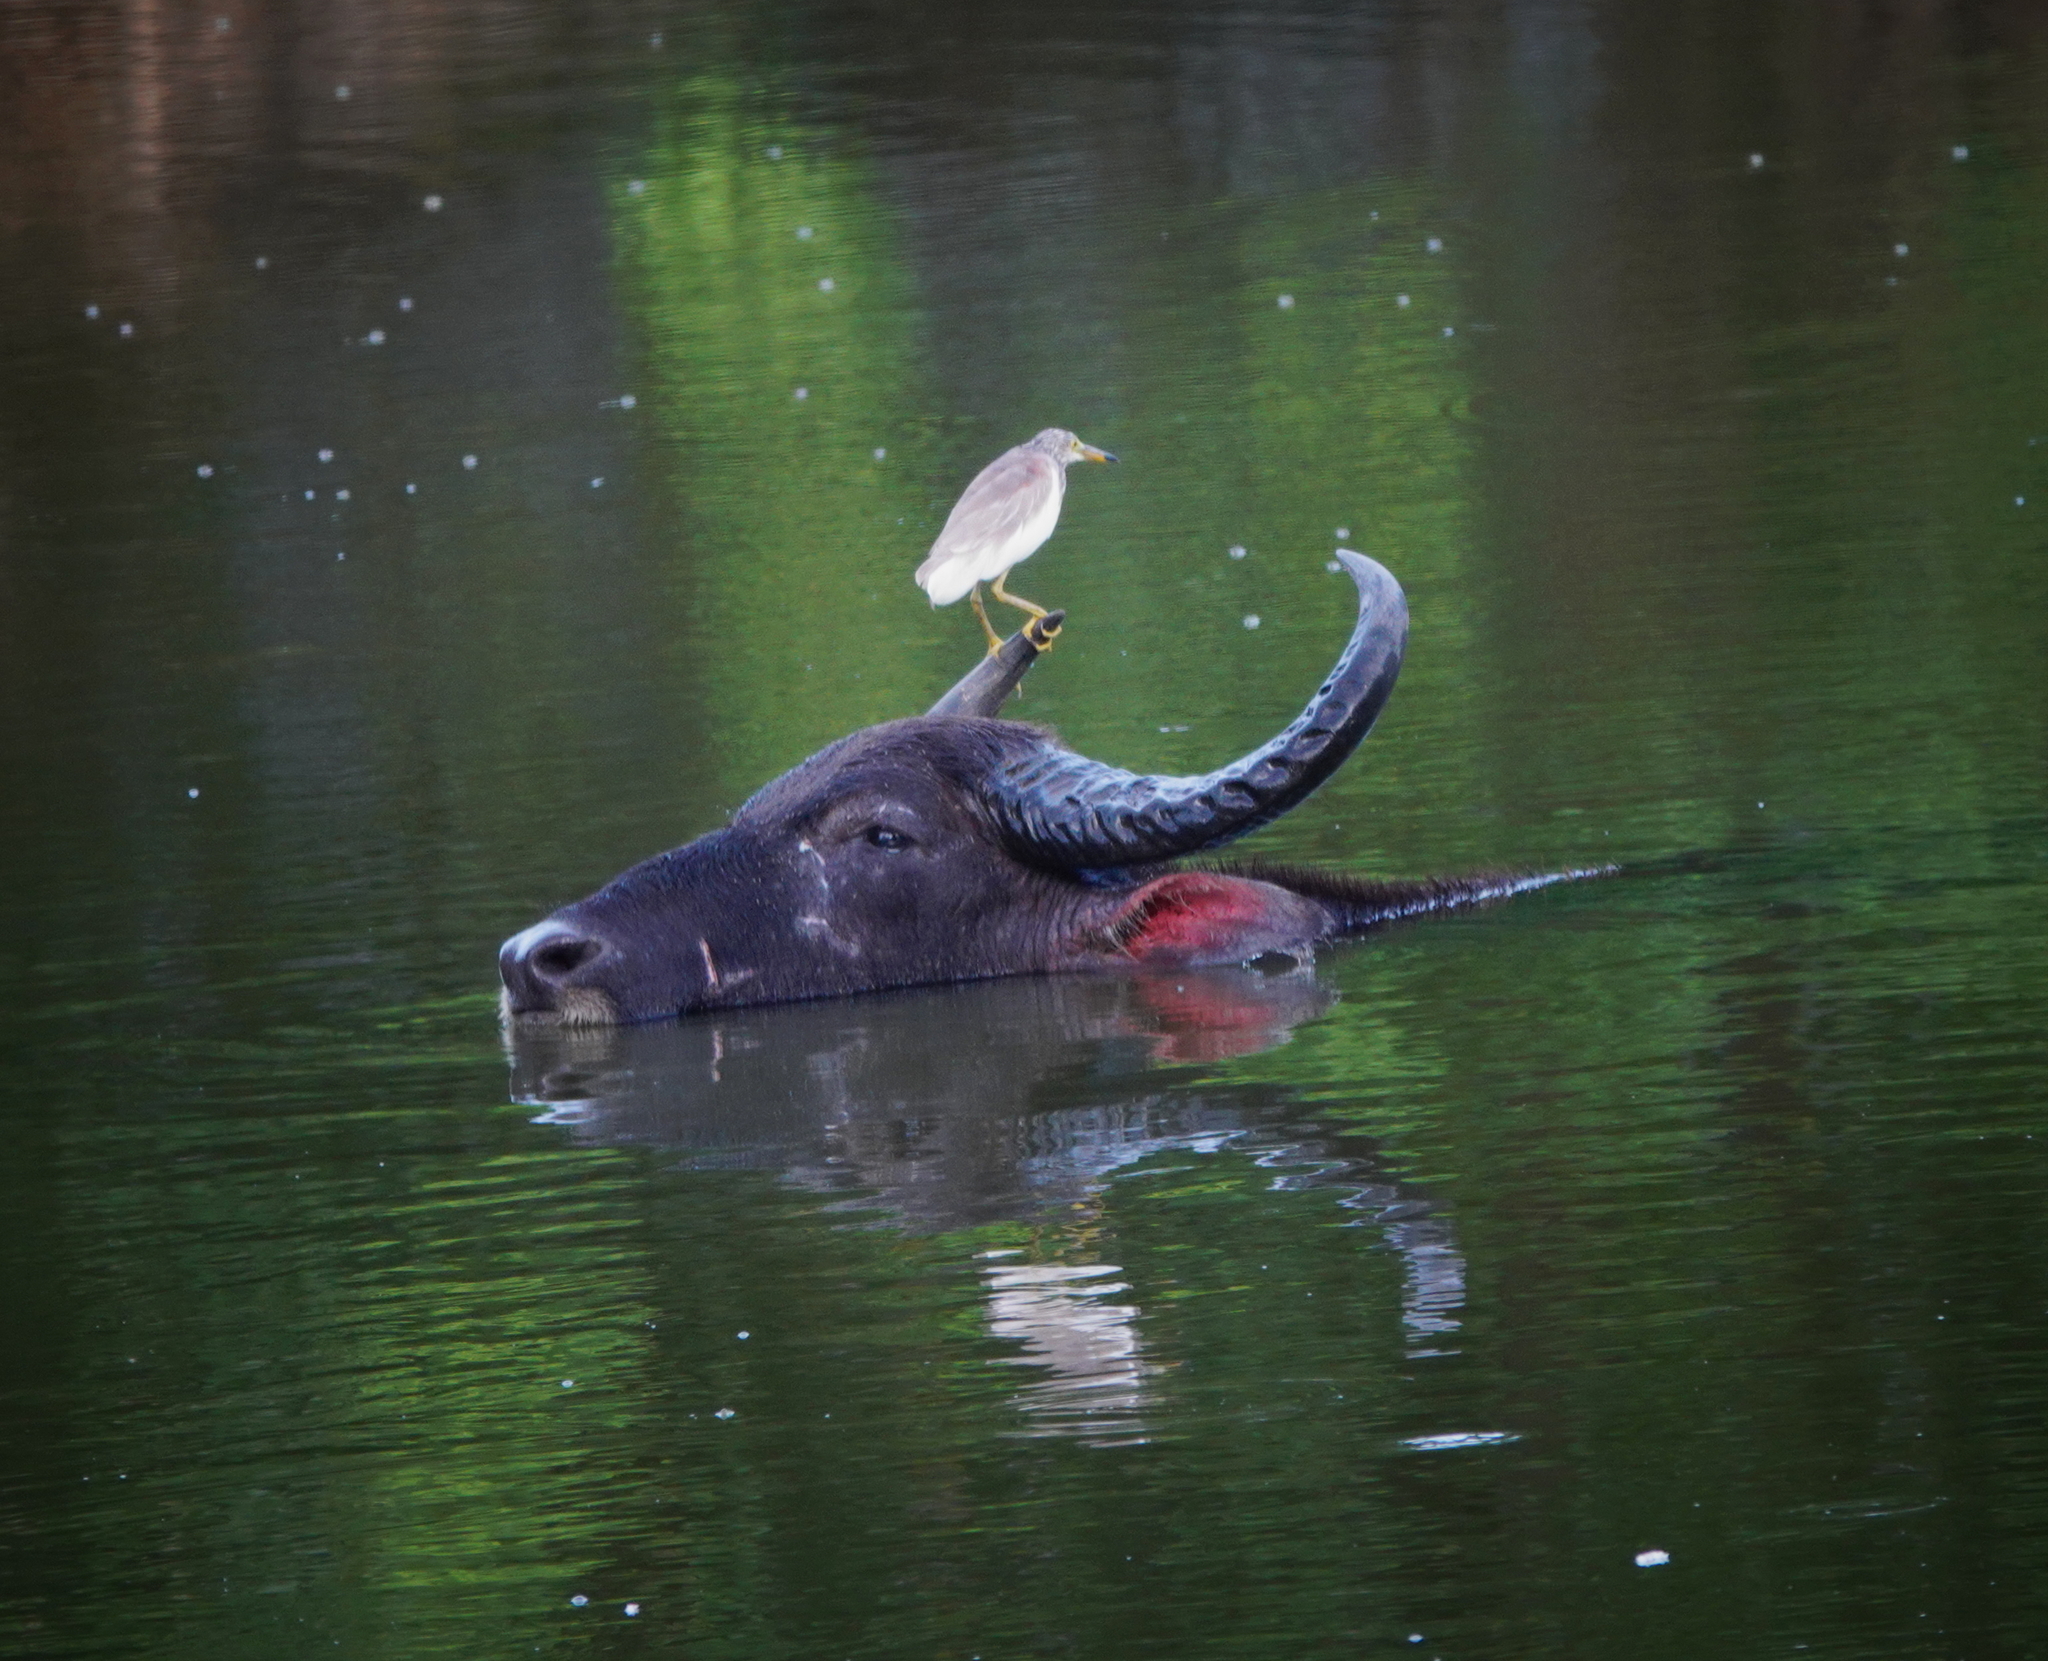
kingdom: Animalia
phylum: Chordata
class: Mammalia
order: Artiodactyla
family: Bovidae
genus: Bubalus
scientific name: Bubalus bubalis
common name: Water buffalo
